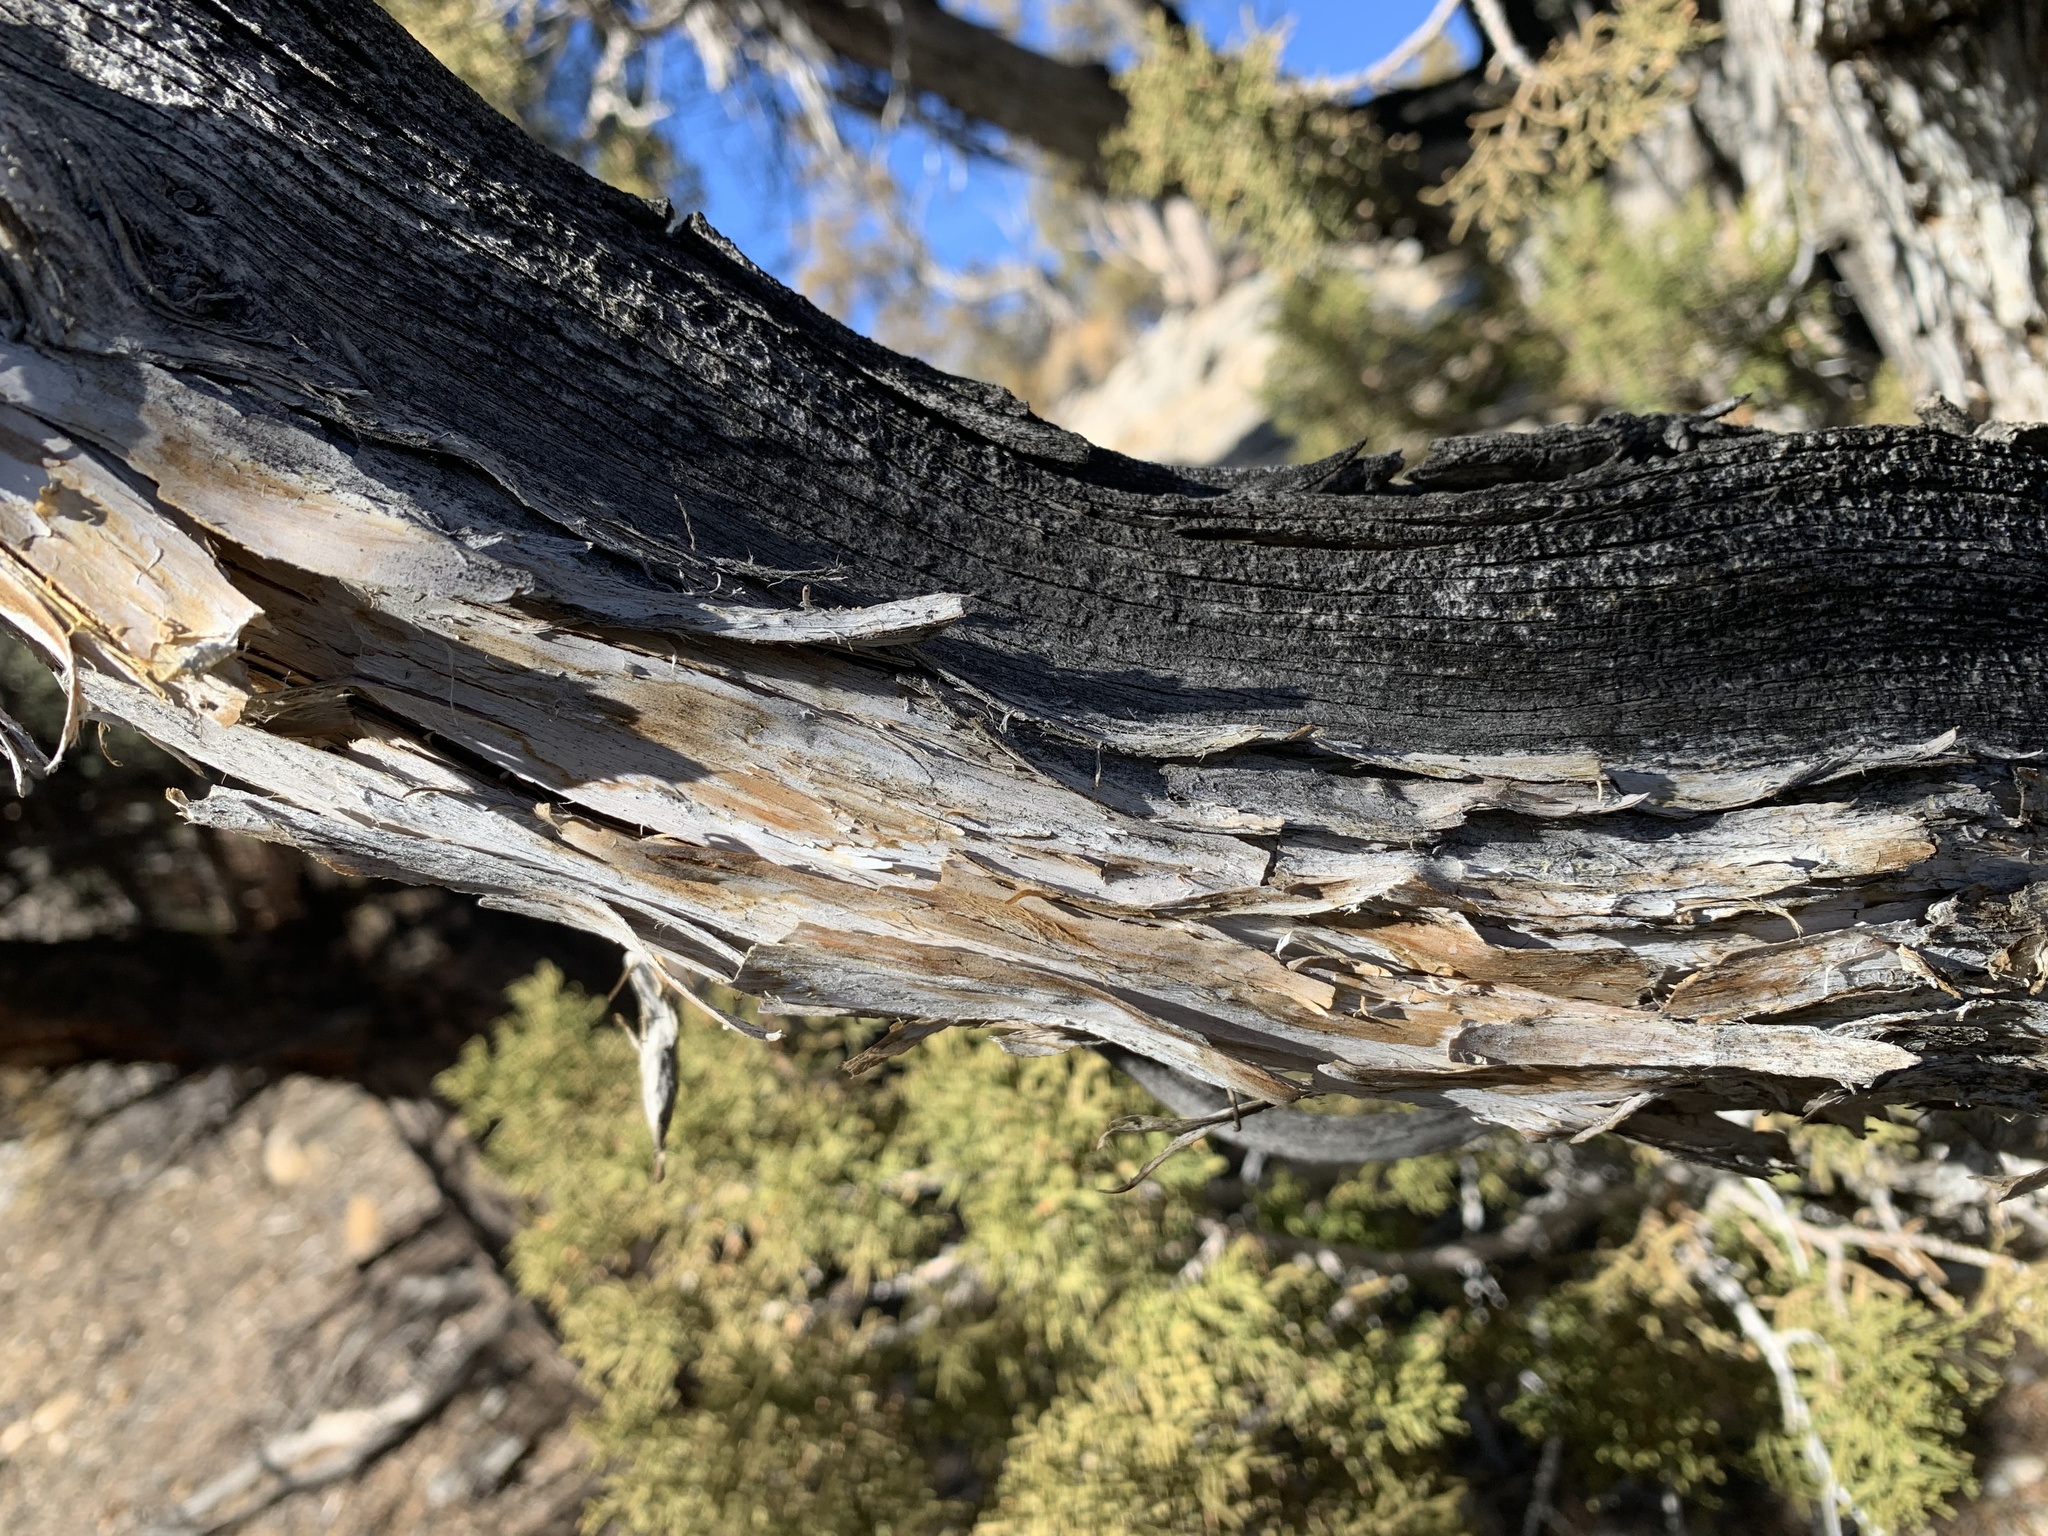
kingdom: Plantae
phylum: Tracheophyta
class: Pinopsida
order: Pinales
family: Cupressaceae
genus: Juniperus
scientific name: Juniperus osteosperma
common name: Utah juniper
